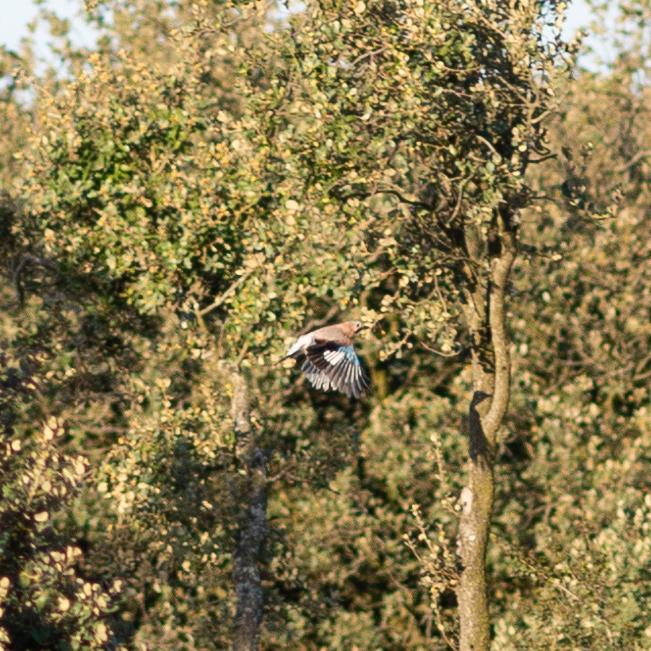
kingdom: Animalia
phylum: Chordata
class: Aves
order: Passeriformes
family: Corvidae
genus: Garrulus
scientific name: Garrulus glandarius
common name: Eurasian jay
